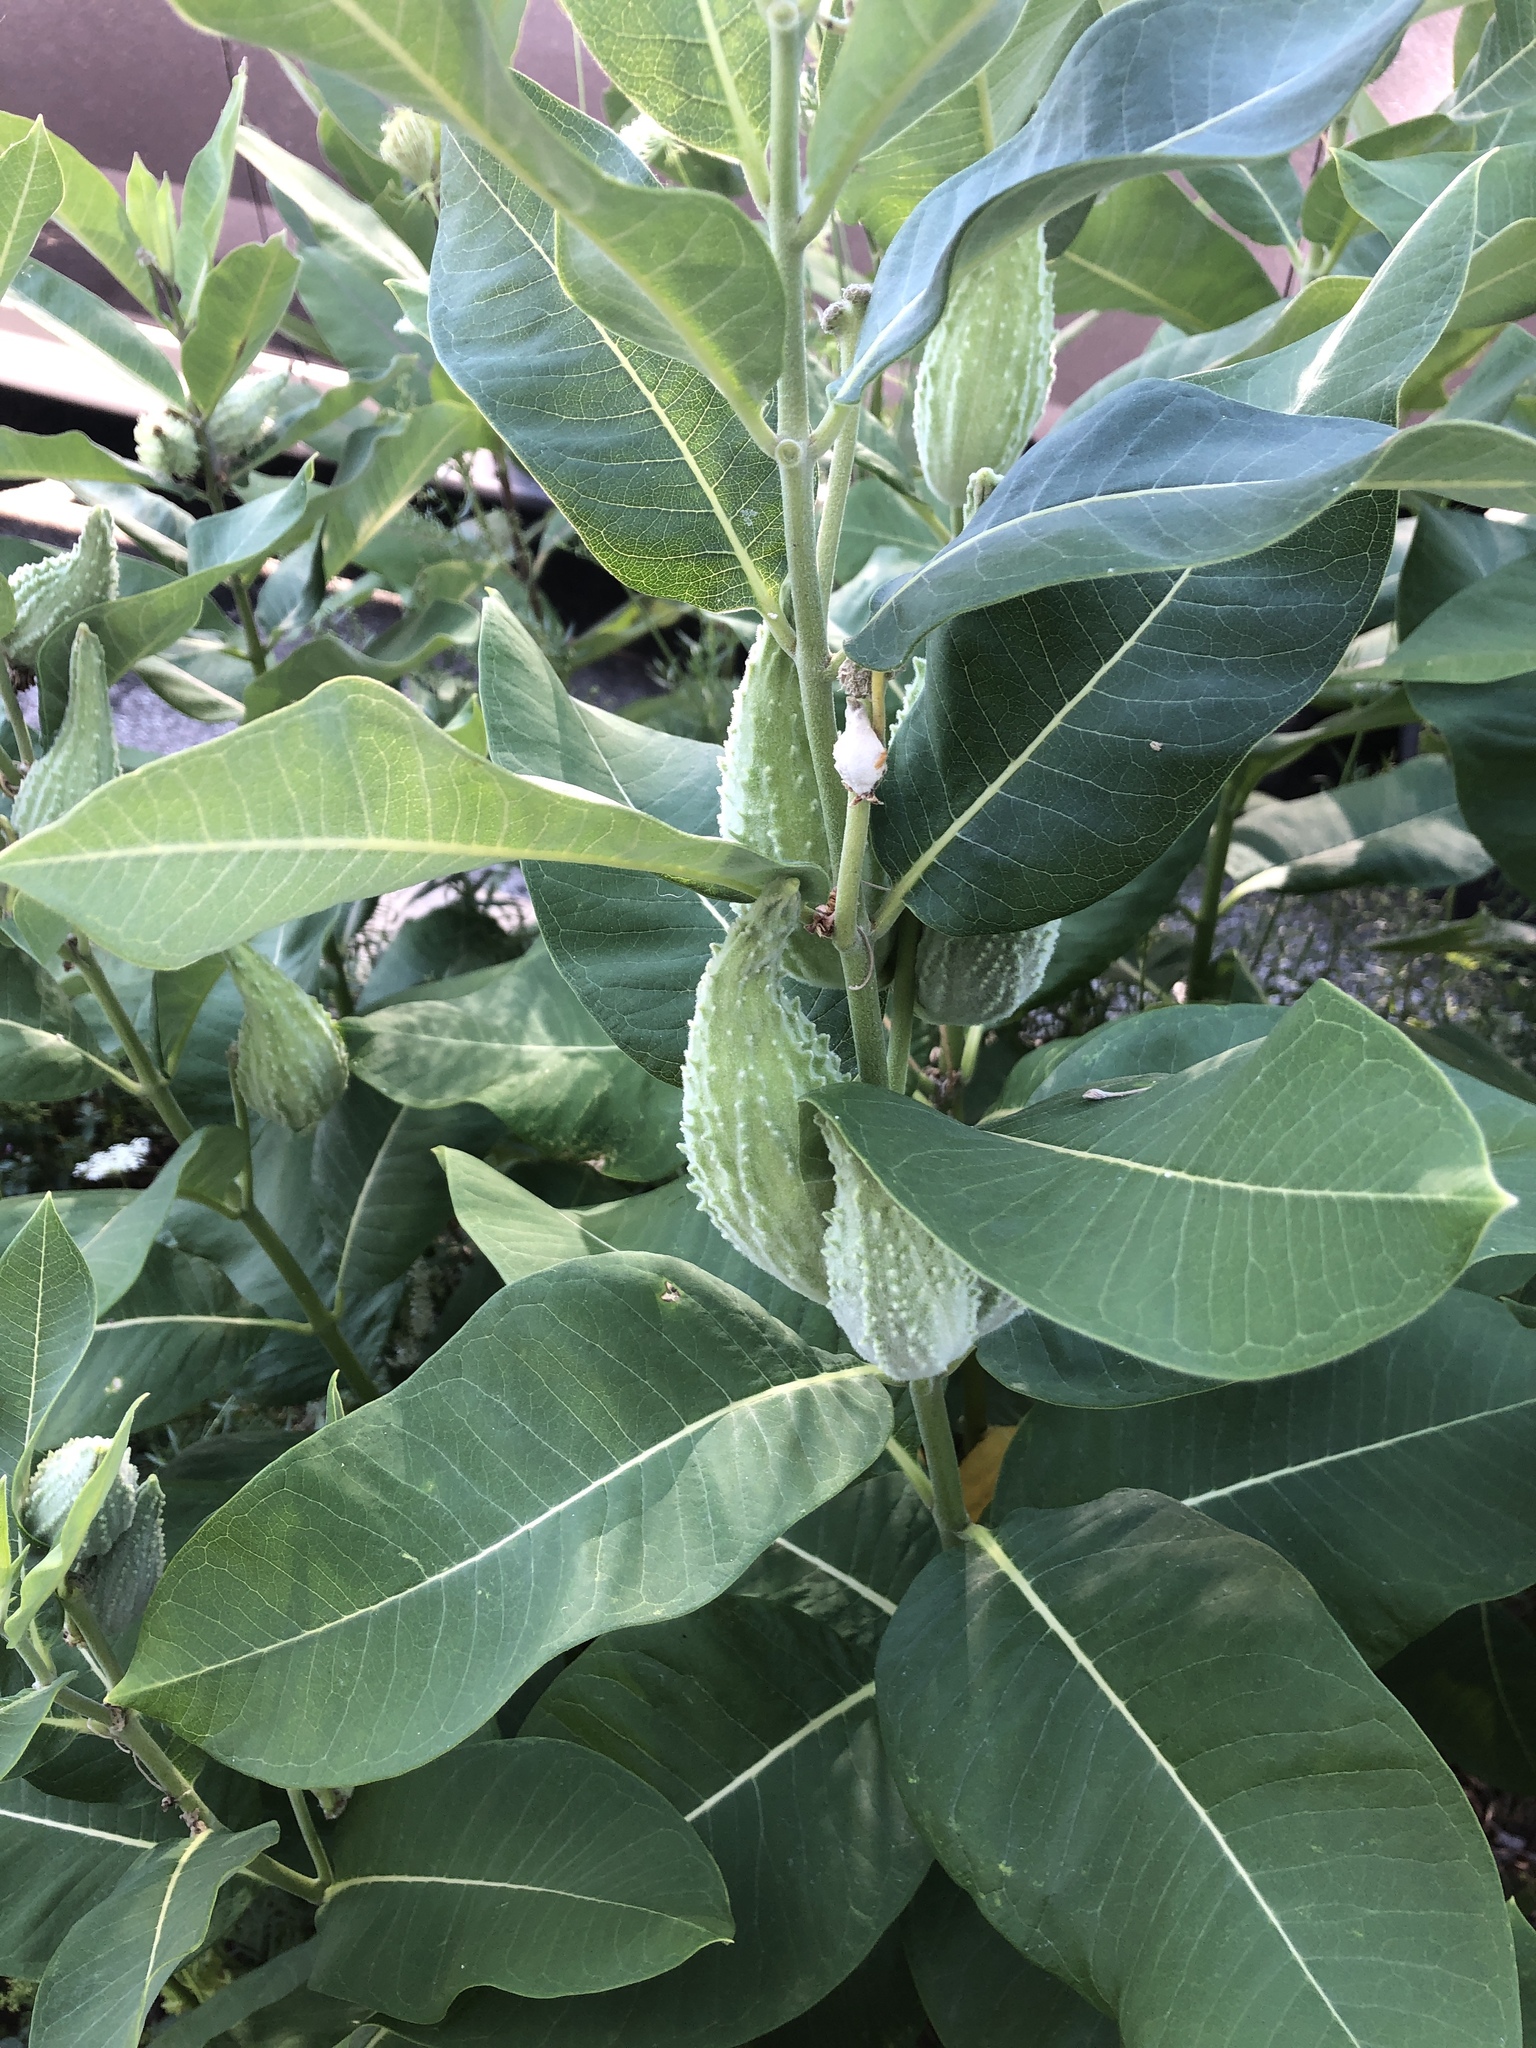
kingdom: Plantae
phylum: Tracheophyta
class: Magnoliopsida
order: Gentianales
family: Apocynaceae
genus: Asclepias
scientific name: Asclepias syriaca
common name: Common milkweed
